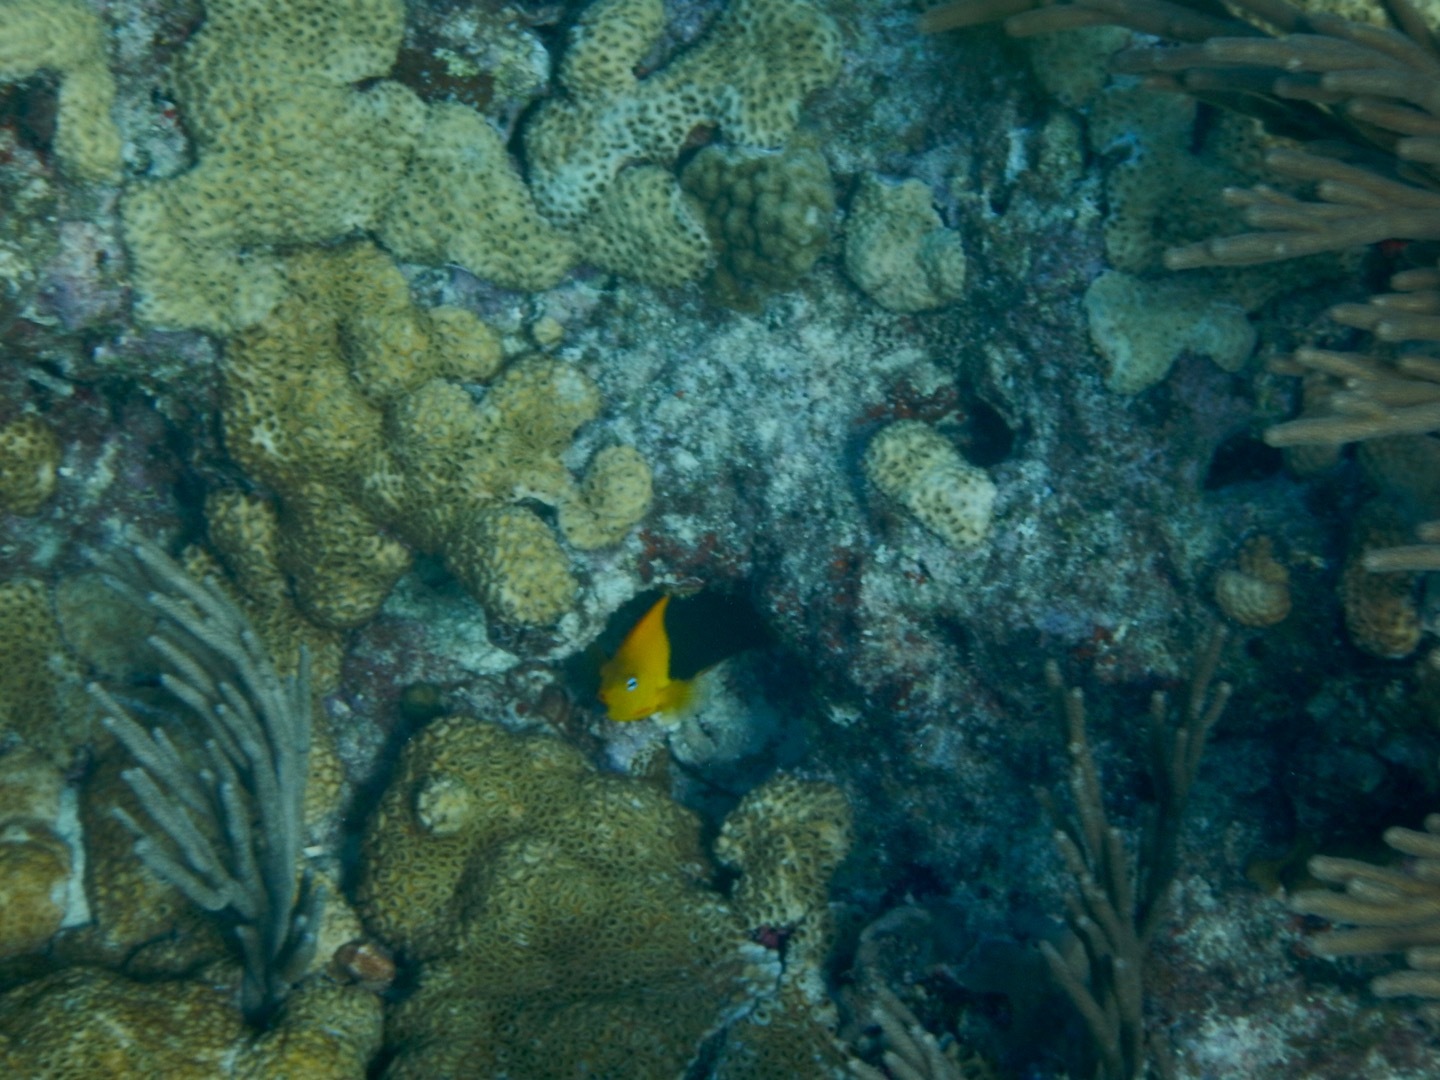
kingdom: Animalia
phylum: Chordata
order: Perciformes
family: Pomacanthidae
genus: Holacanthus
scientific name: Holacanthus tricolor
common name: Rock beauty
